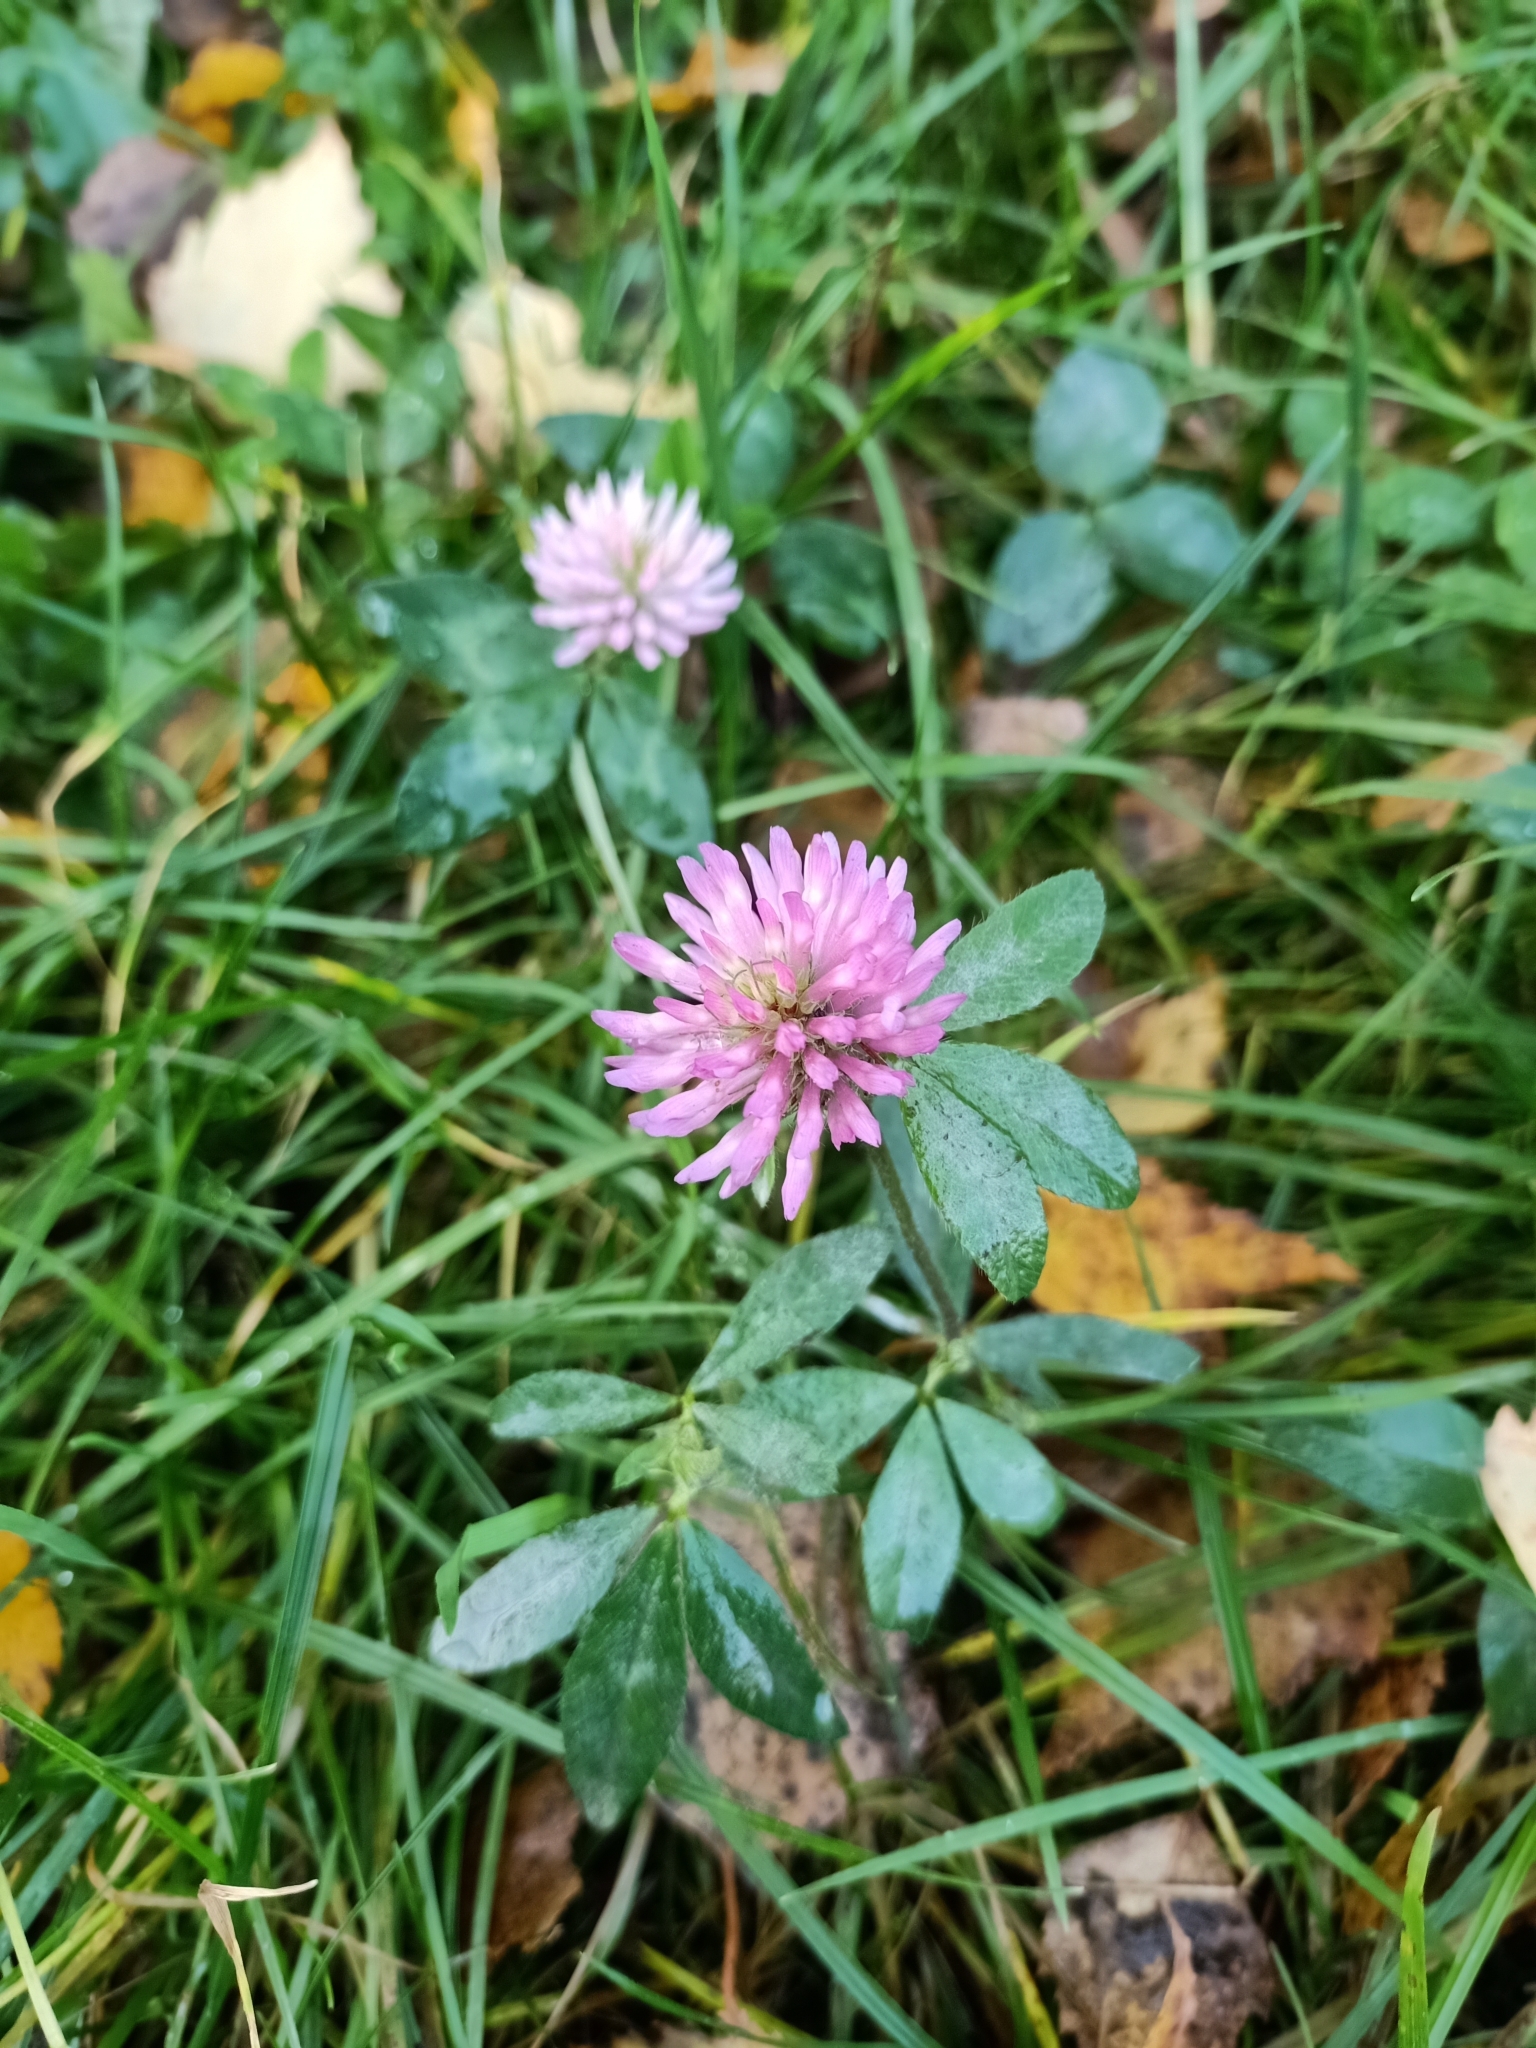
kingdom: Plantae
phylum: Tracheophyta
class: Magnoliopsida
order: Fabales
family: Fabaceae
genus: Trifolium
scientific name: Trifolium pratense
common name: Red clover
